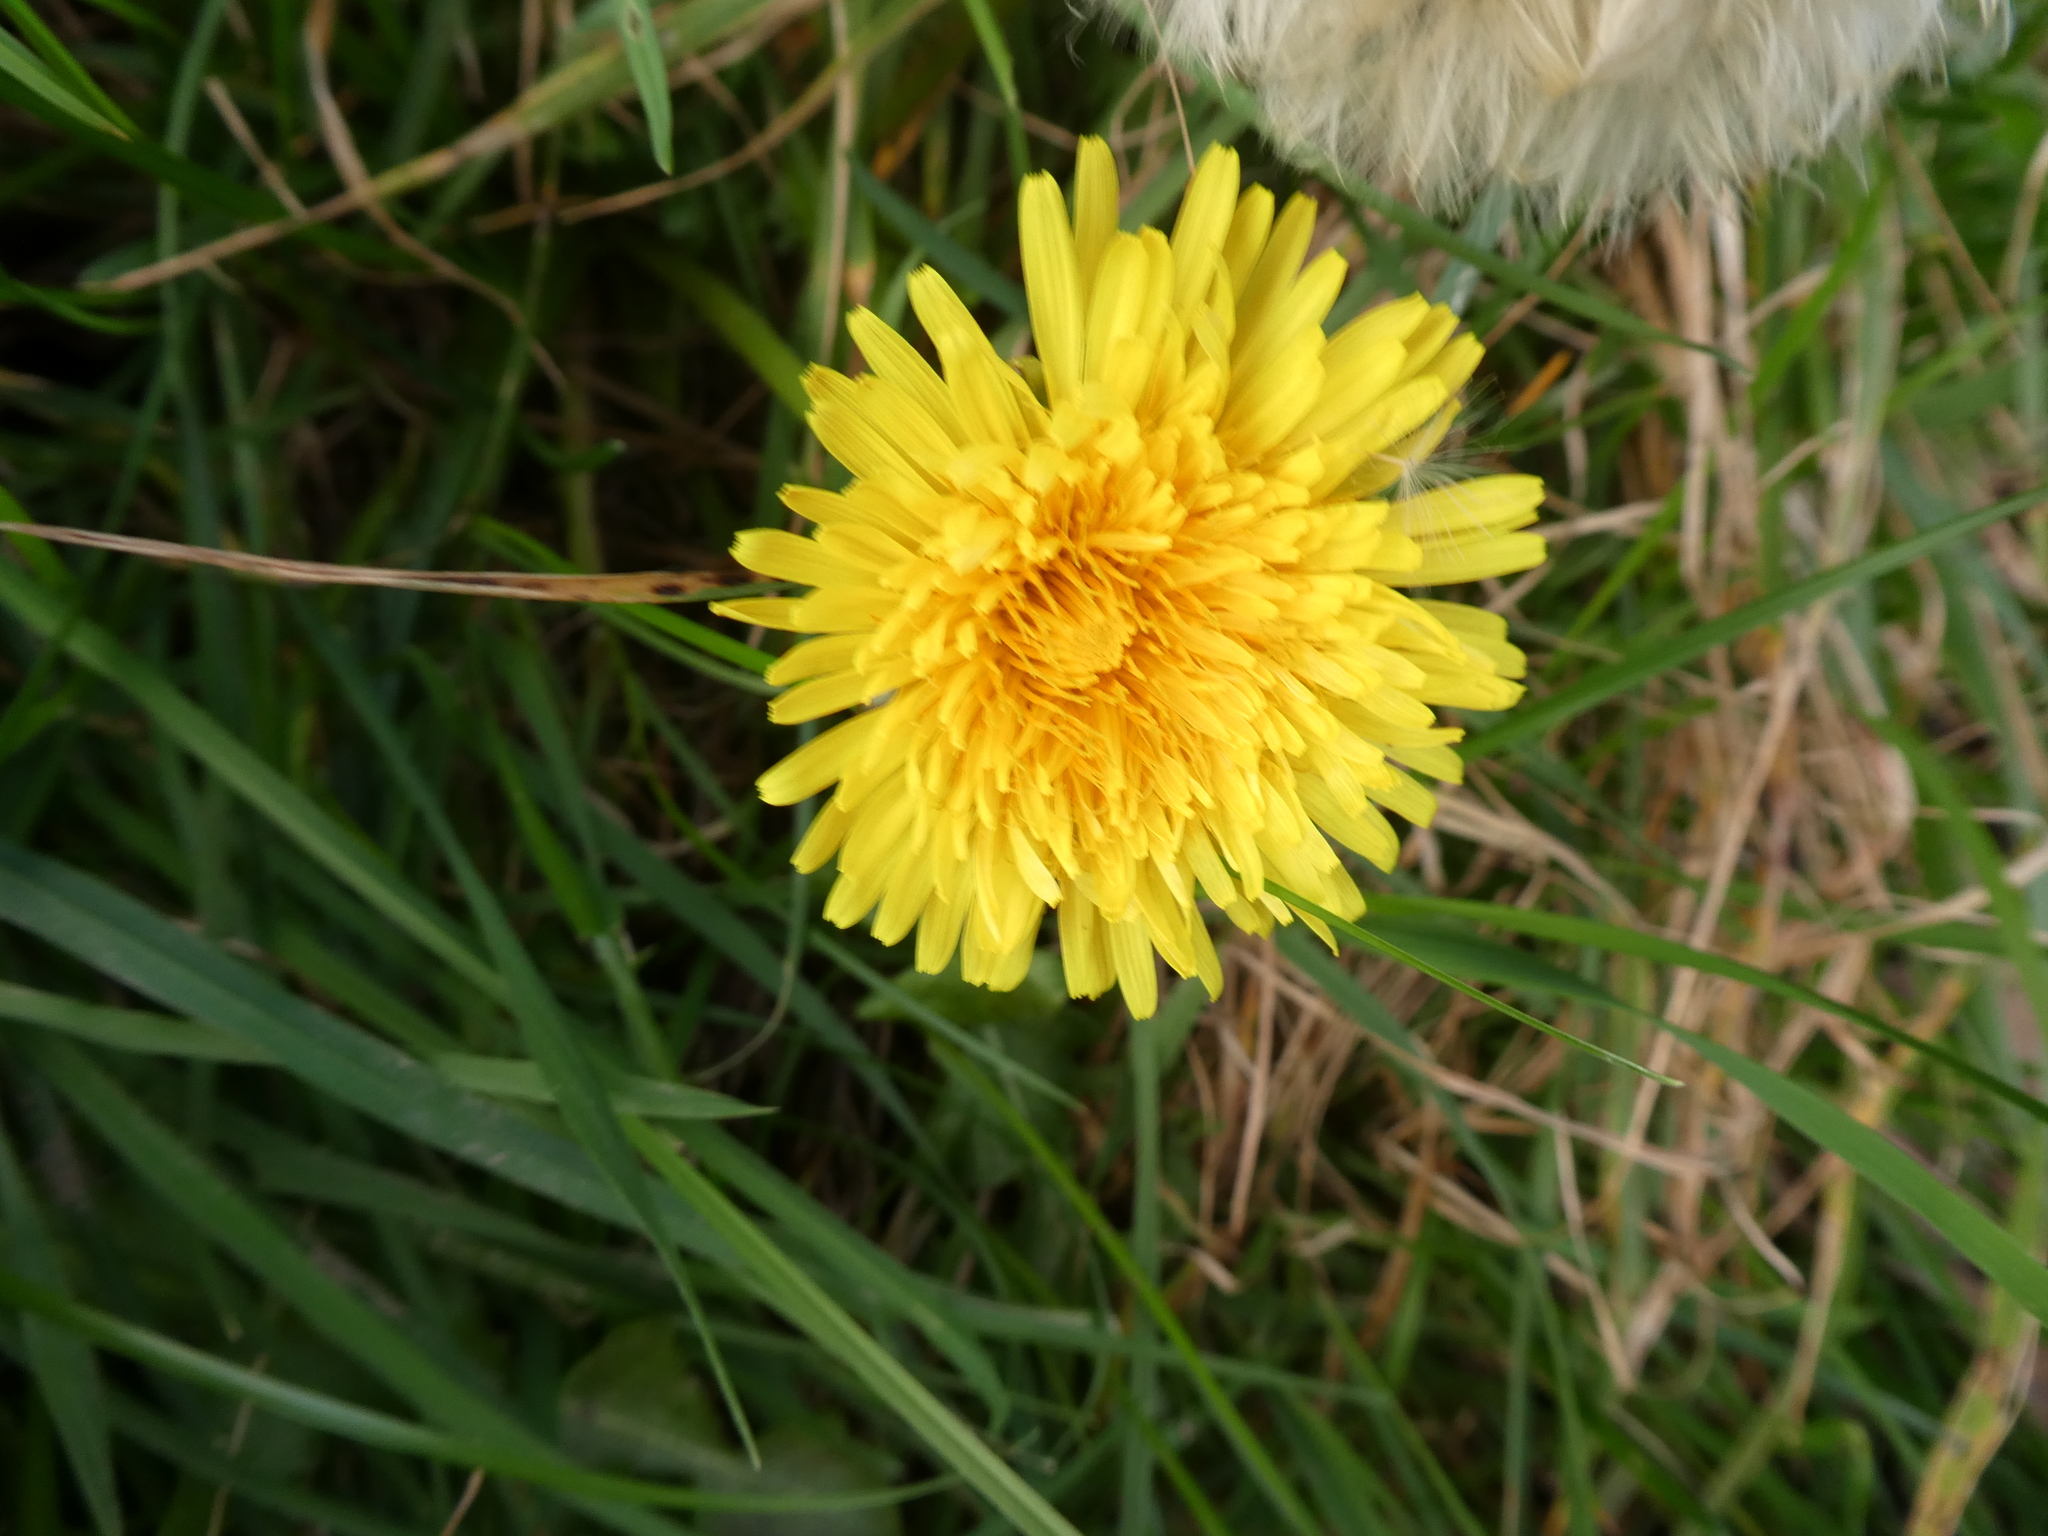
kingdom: Plantae
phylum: Tracheophyta
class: Magnoliopsida
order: Asterales
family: Asteraceae
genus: Taraxacum
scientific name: Taraxacum officinale
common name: Common dandelion
